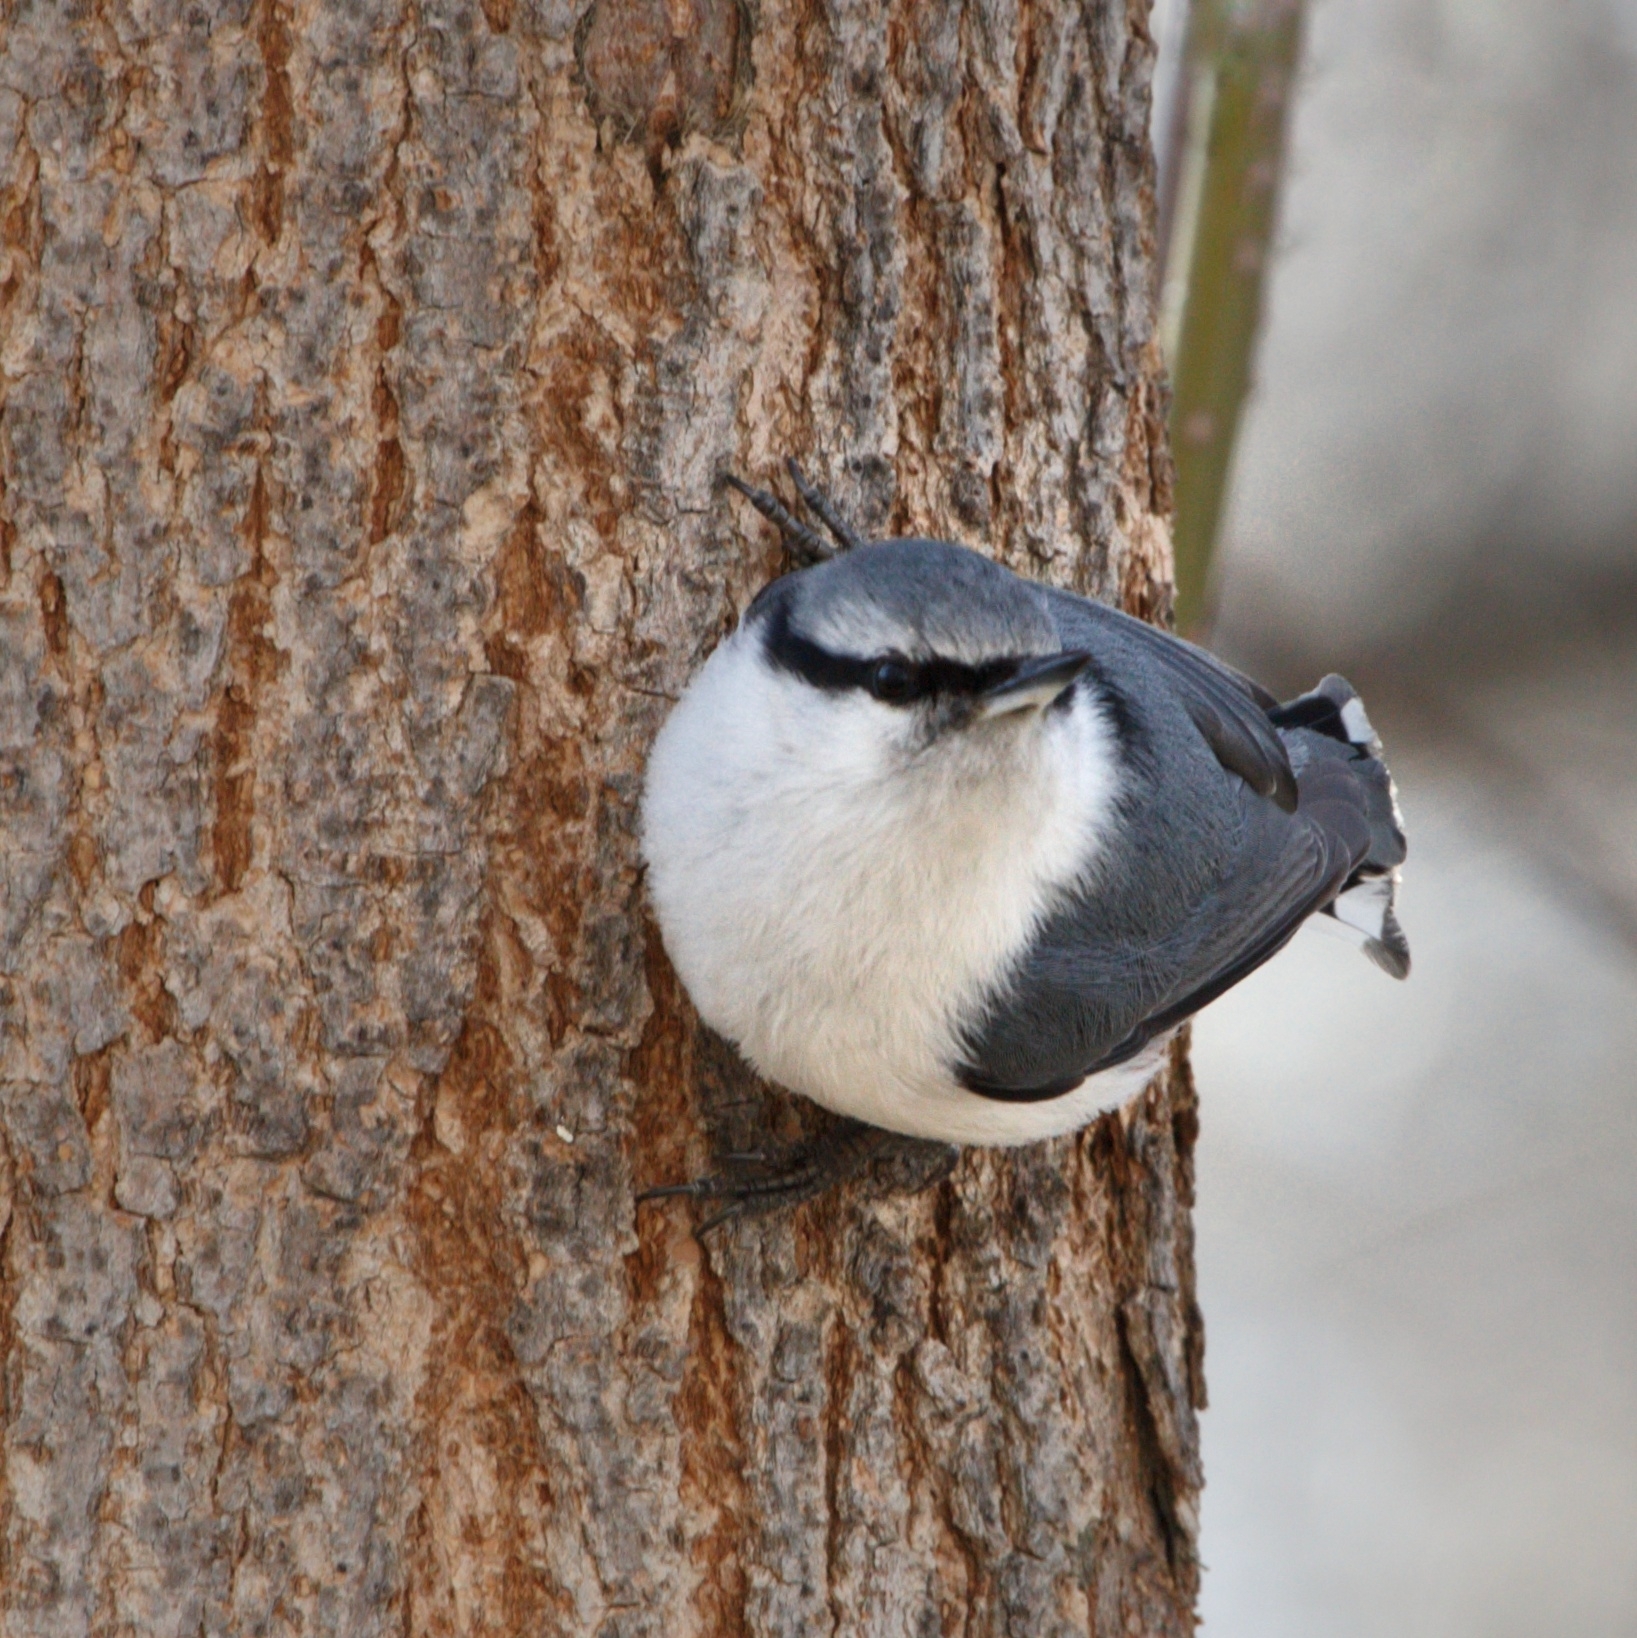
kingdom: Animalia
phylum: Chordata
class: Aves
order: Passeriformes
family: Sittidae
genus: Sitta
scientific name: Sitta europaea
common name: Eurasian nuthatch
